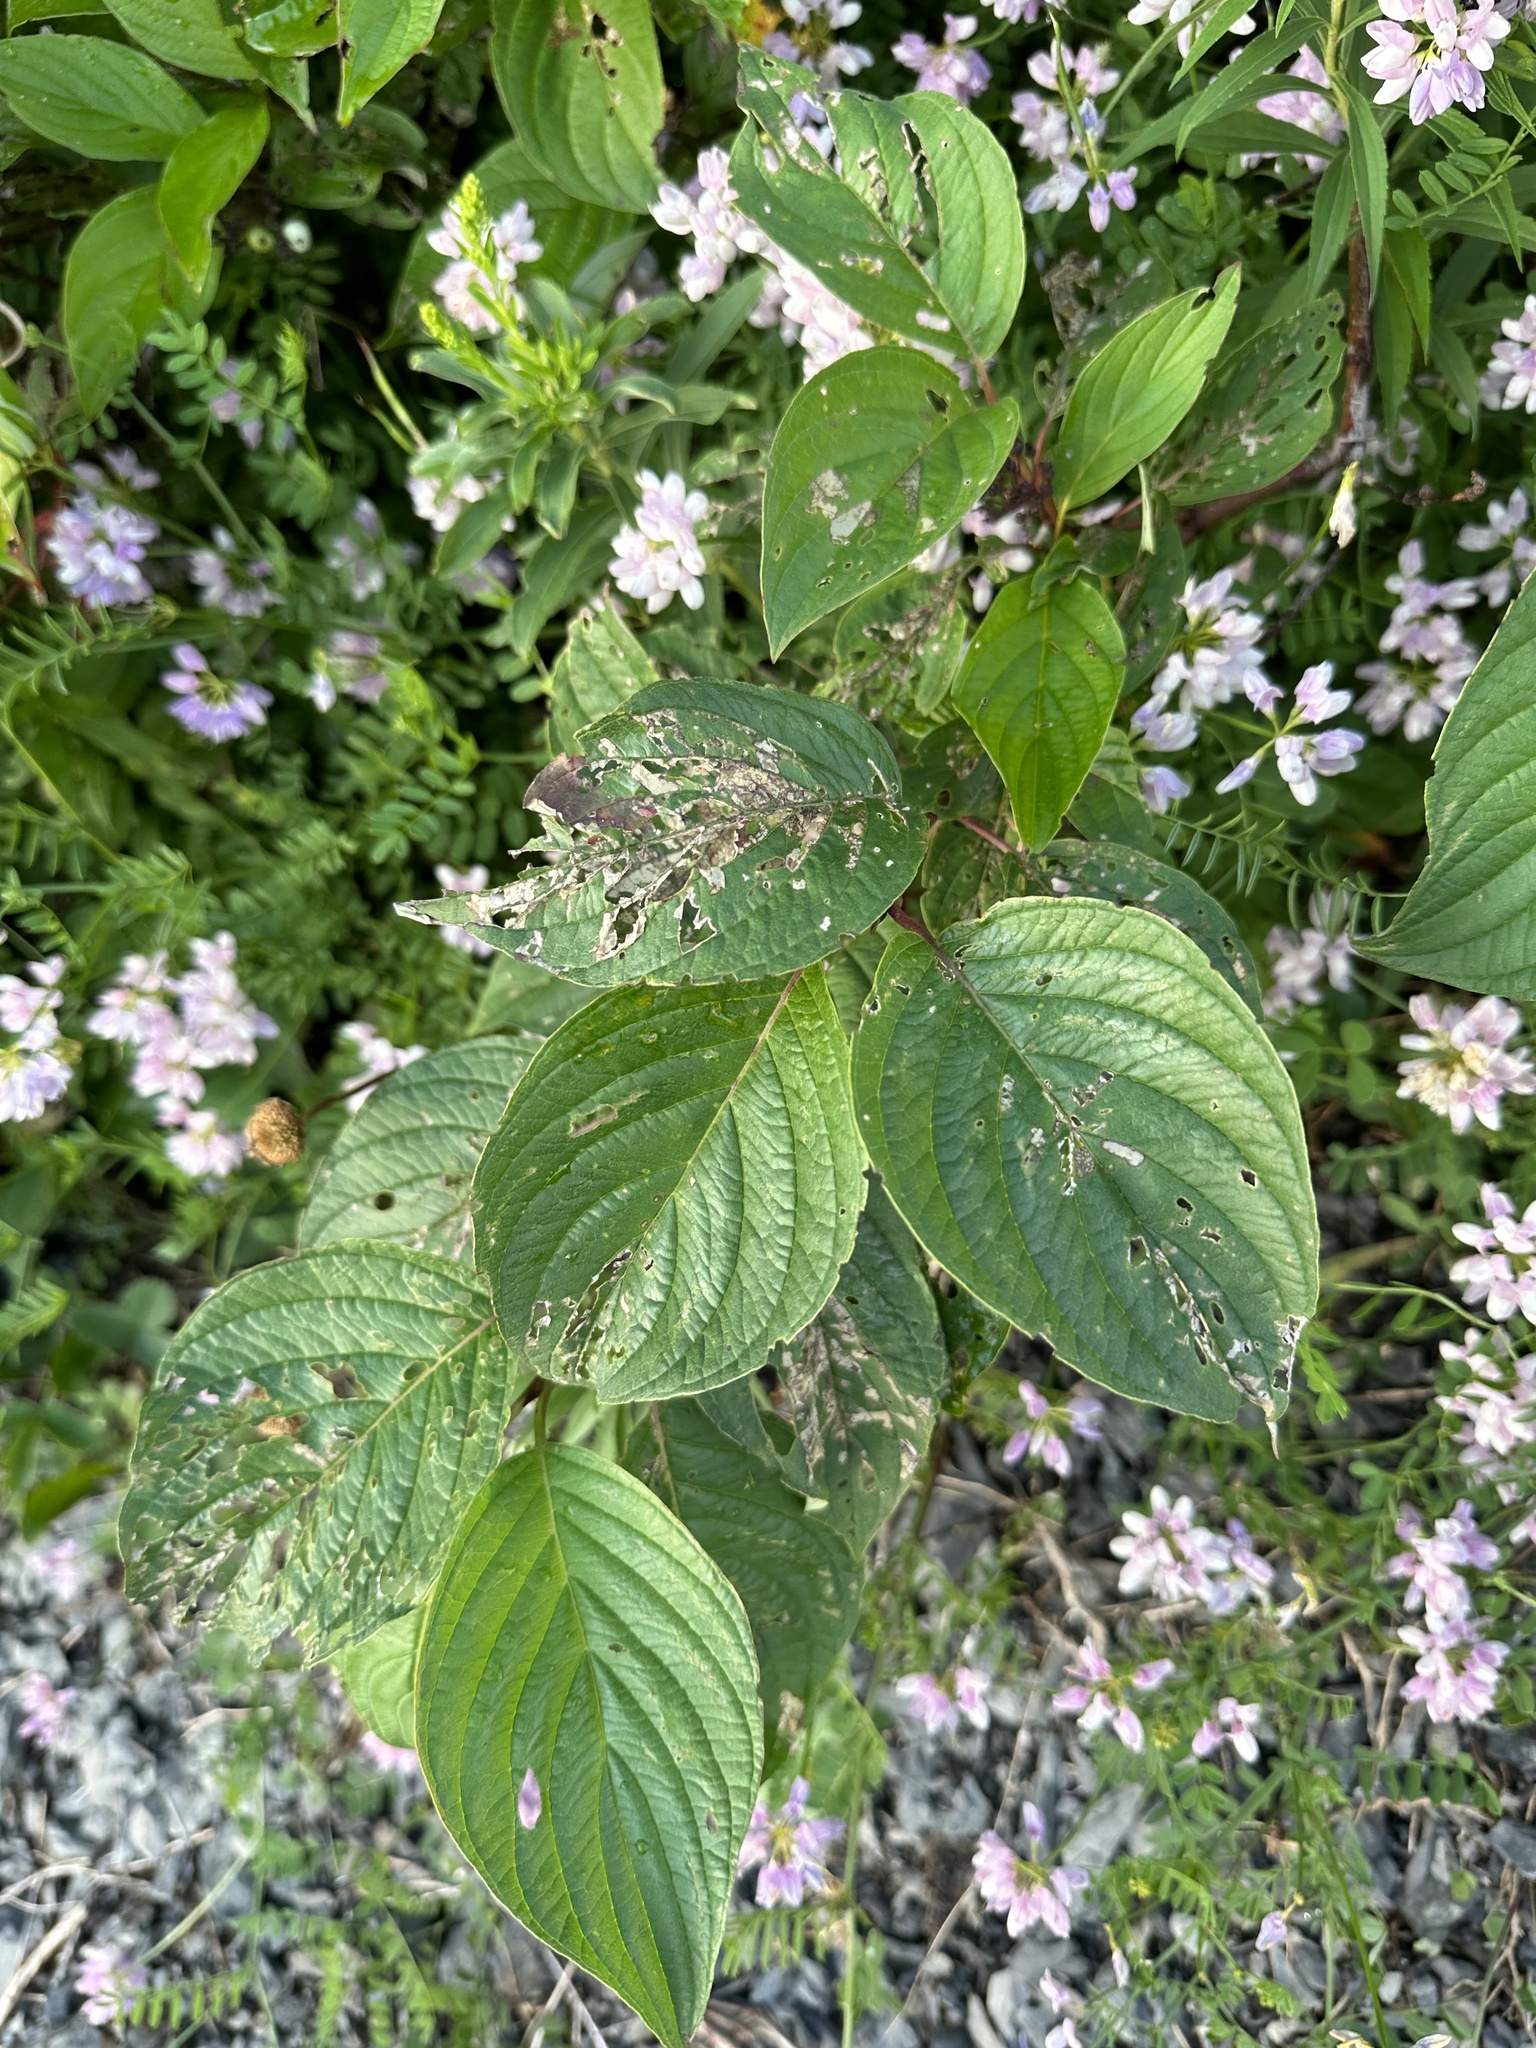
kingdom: Plantae
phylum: Tracheophyta
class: Magnoliopsida
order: Cornales
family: Cornaceae
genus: Cornus
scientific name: Cornus sericea
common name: Red-osier dogwood
